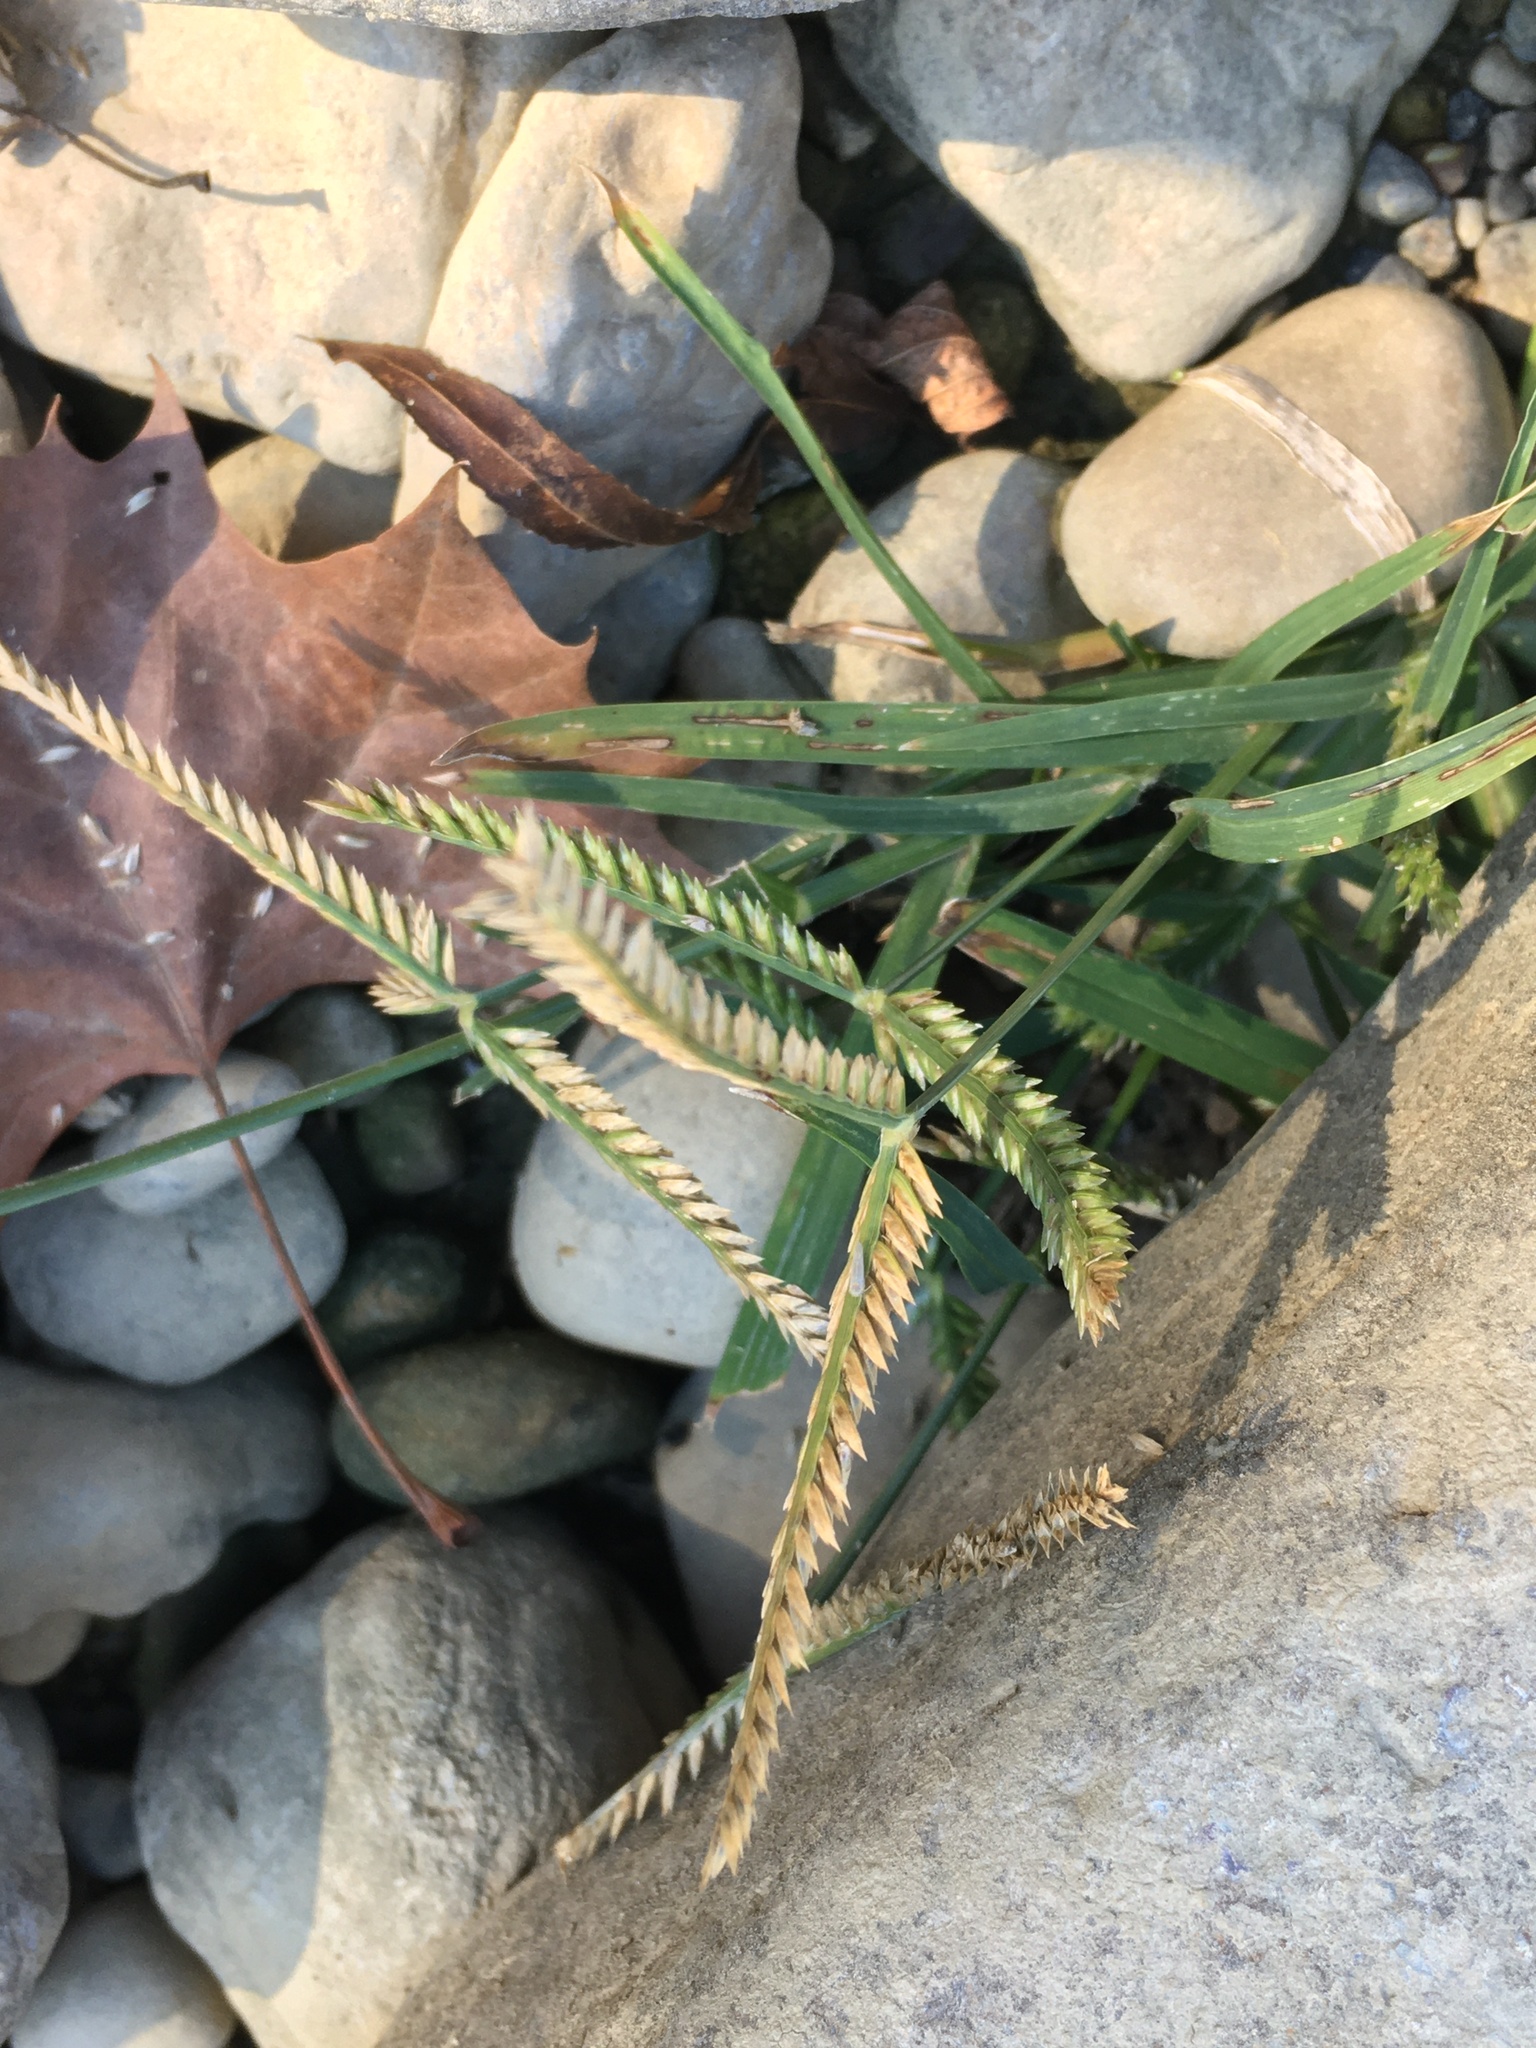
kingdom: Plantae
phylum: Tracheophyta
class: Liliopsida
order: Poales
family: Poaceae
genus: Eleusine
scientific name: Eleusine indica
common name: Yard-grass
